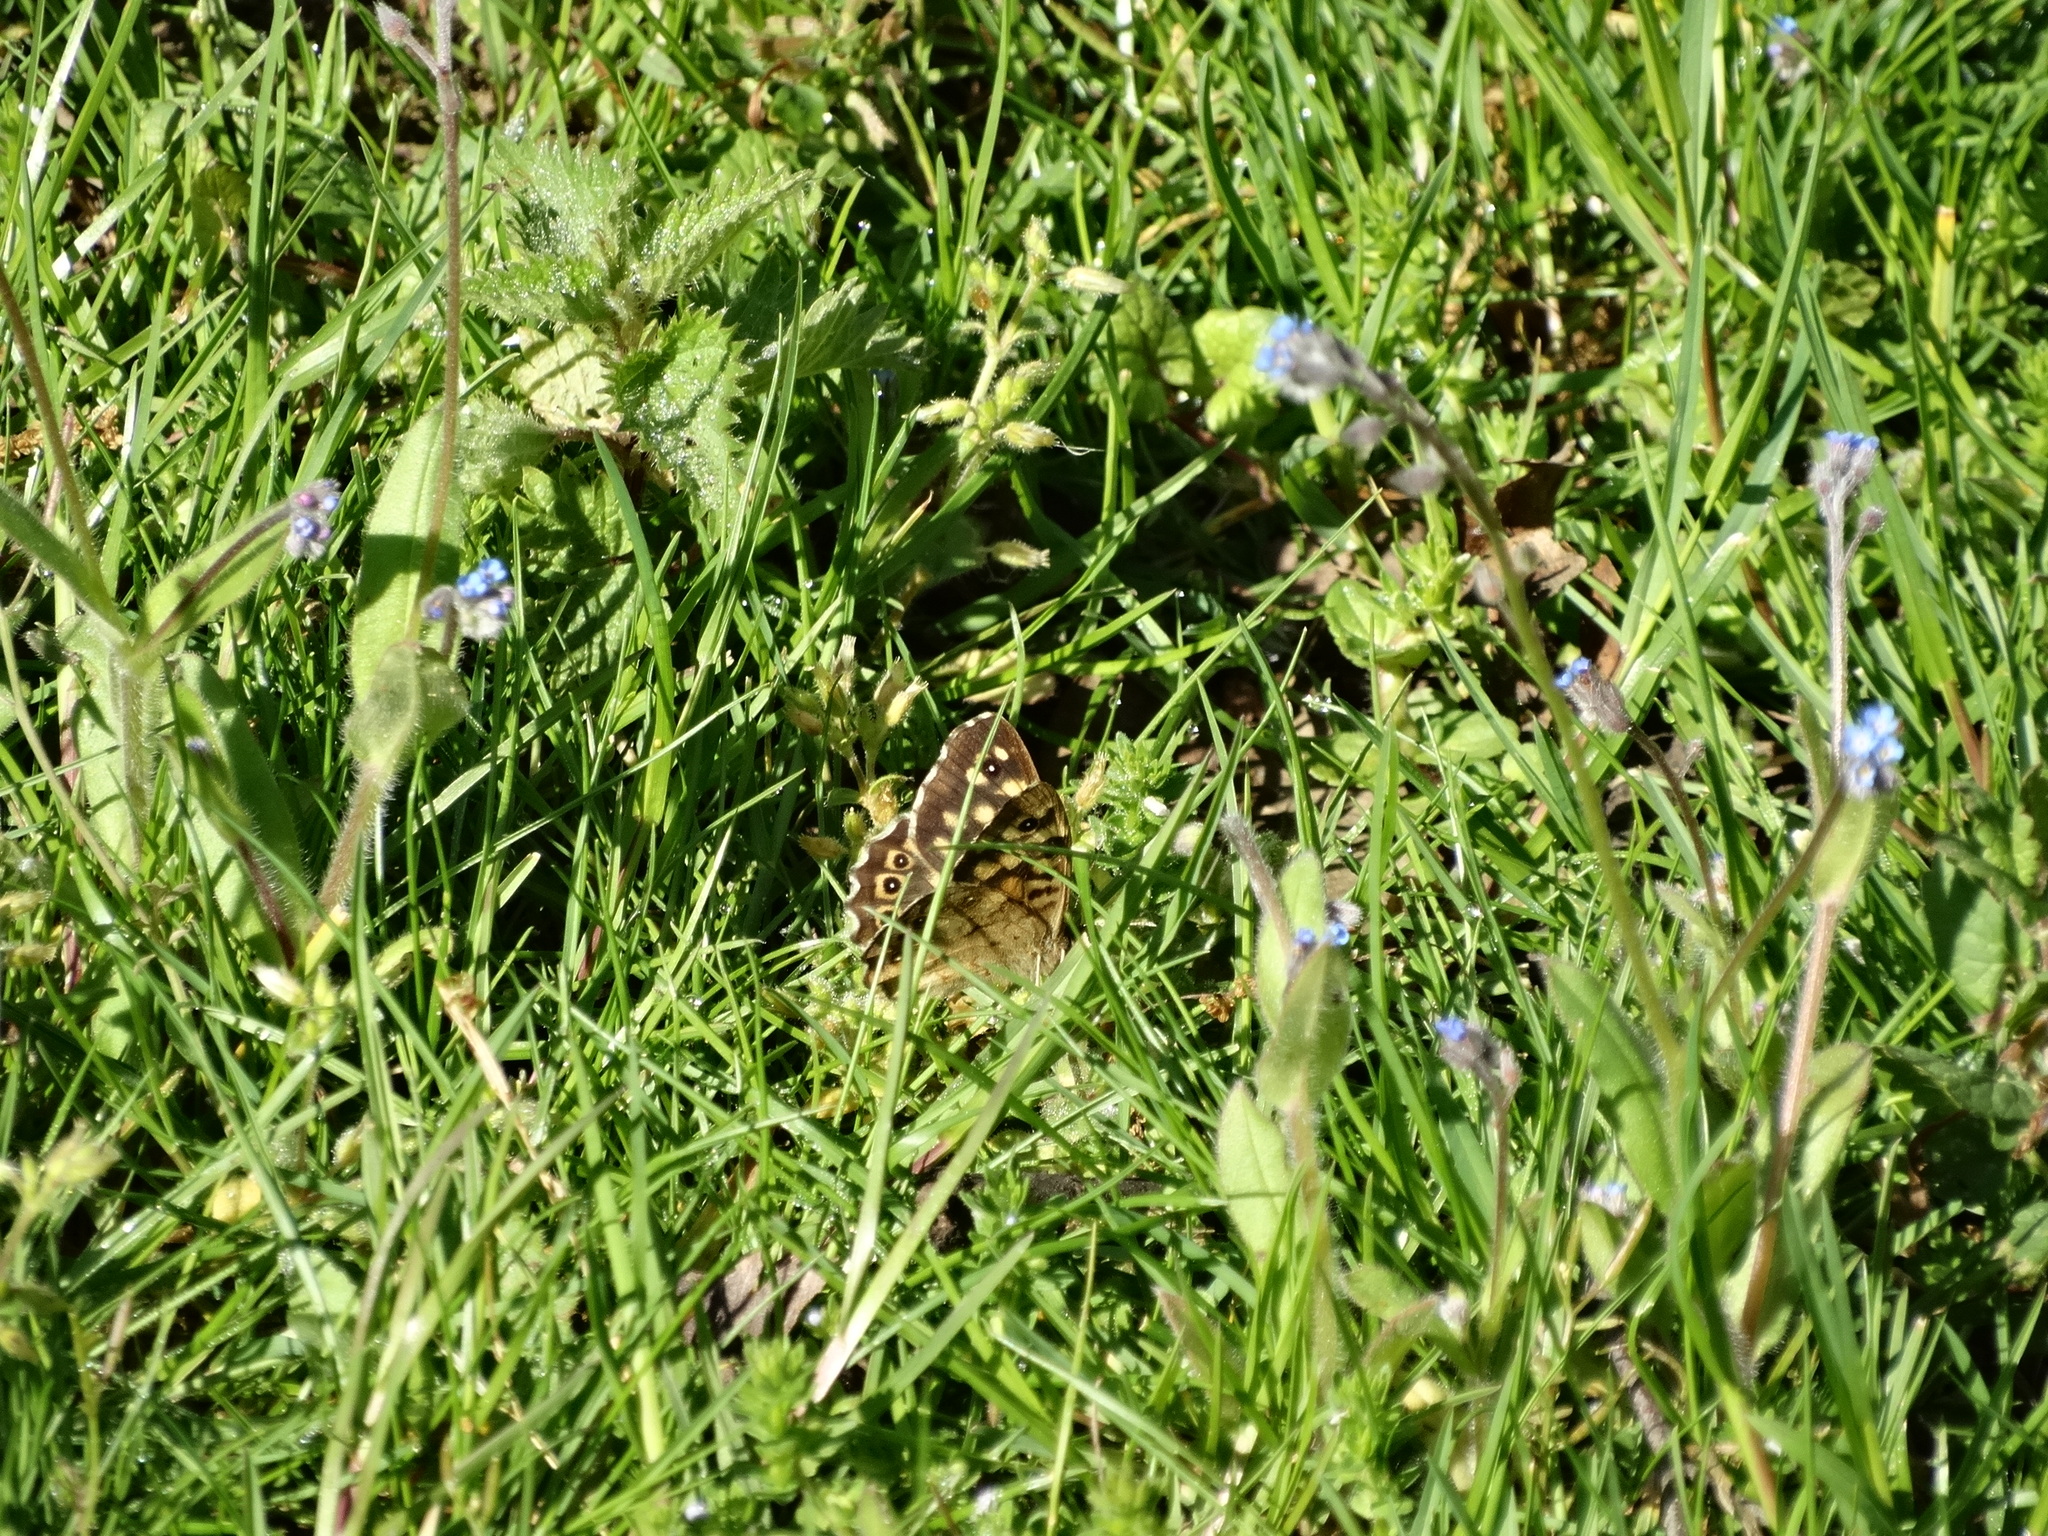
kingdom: Animalia
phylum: Arthropoda
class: Insecta
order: Lepidoptera
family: Nymphalidae
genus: Pararge
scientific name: Pararge aegeria
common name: Speckled wood
